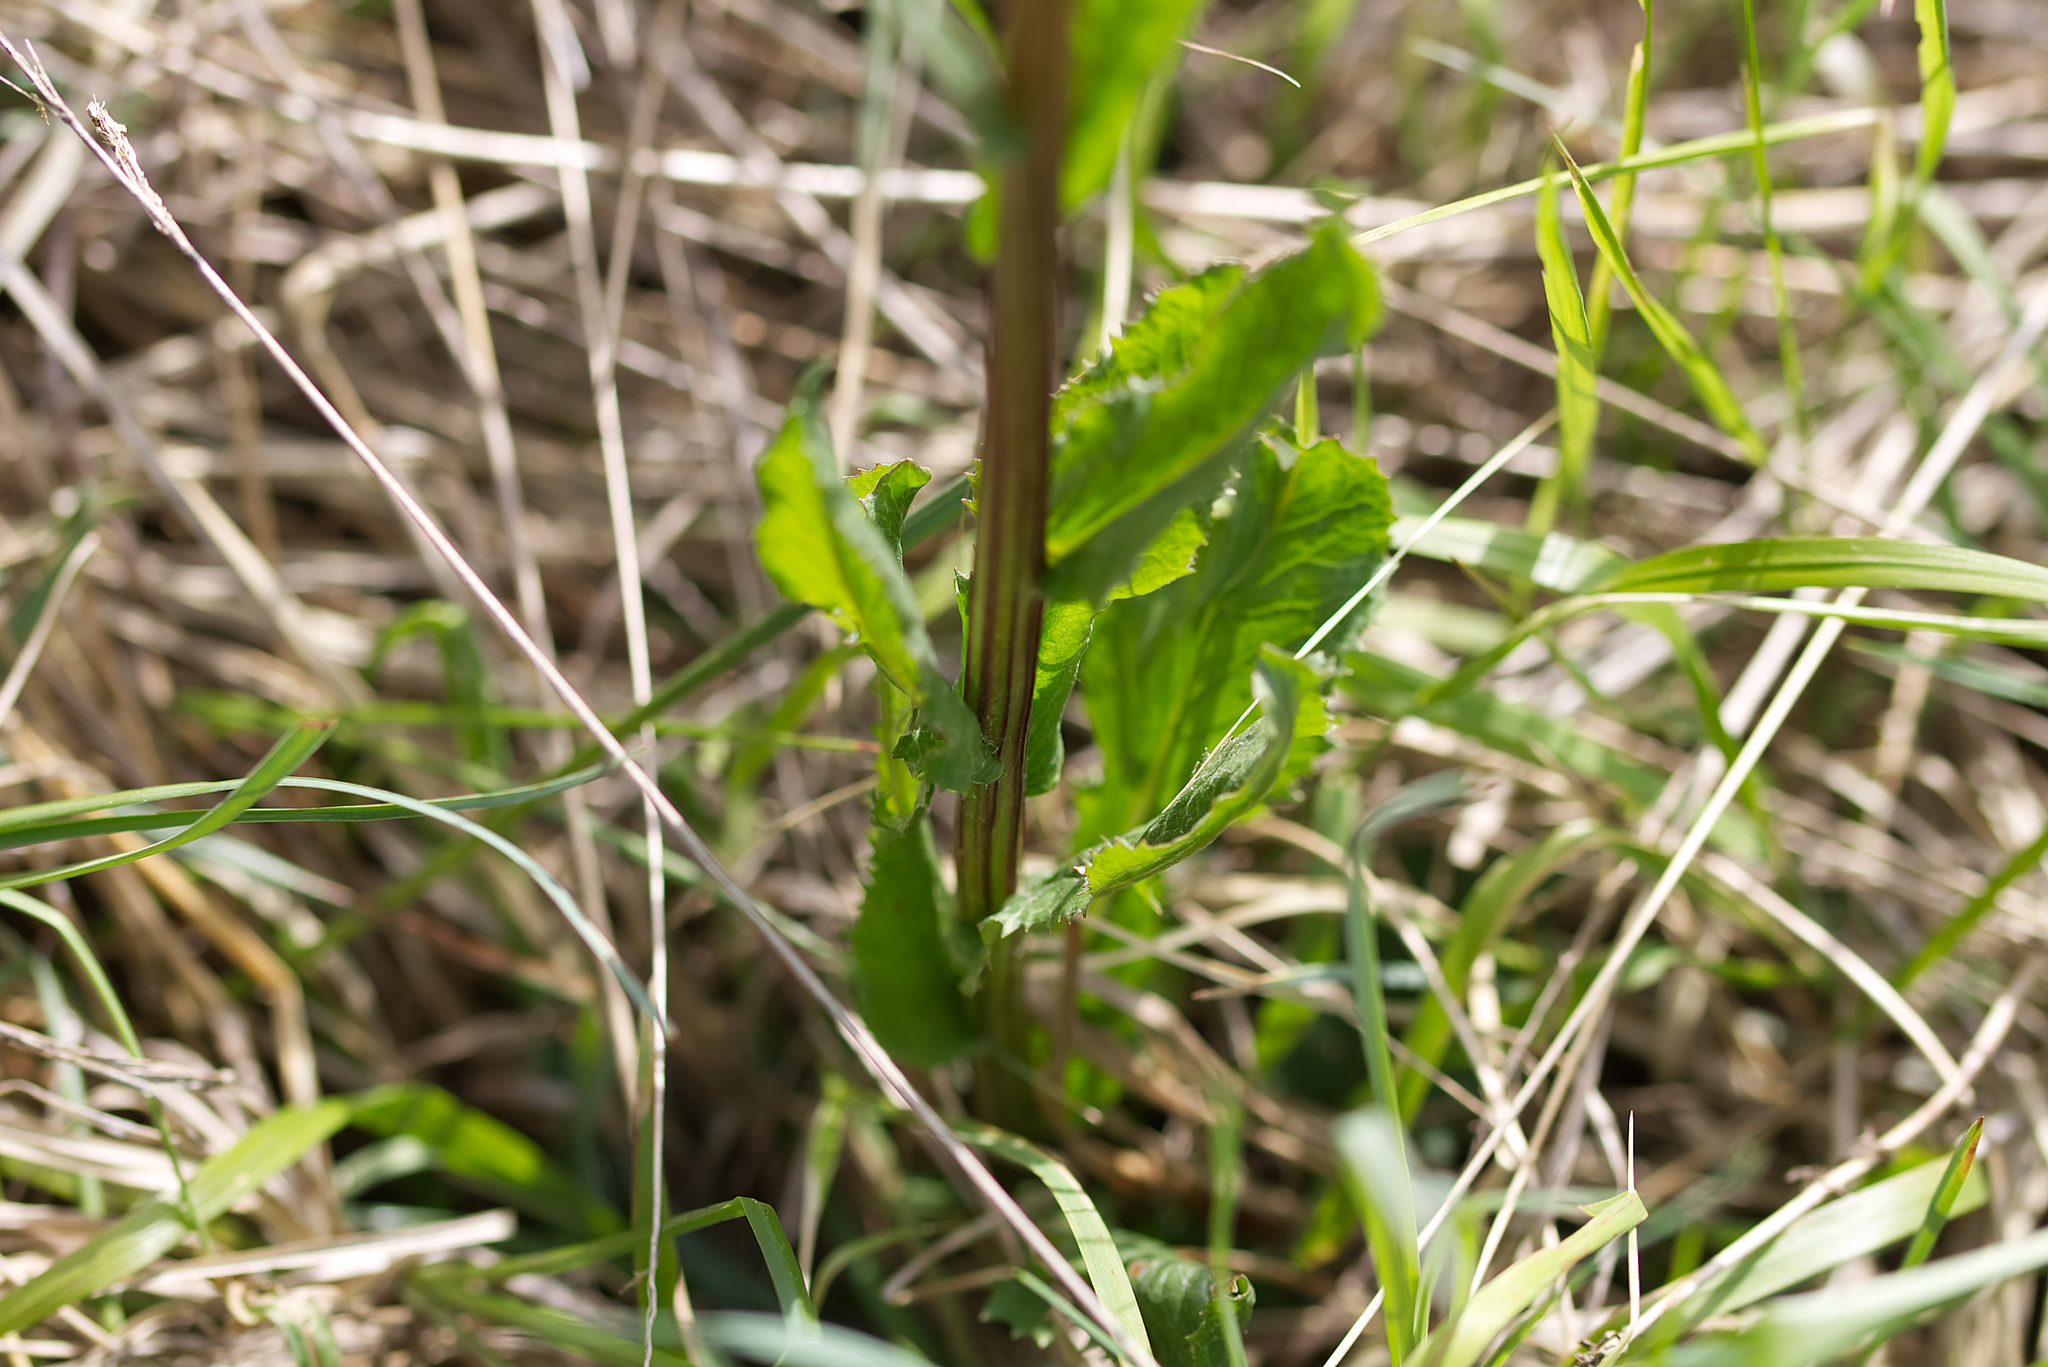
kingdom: Plantae
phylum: Tracheophyta
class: Magnoliopsida
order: Asterales
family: Asteraceae
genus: Tephroseris
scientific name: Tephroseris crispa
